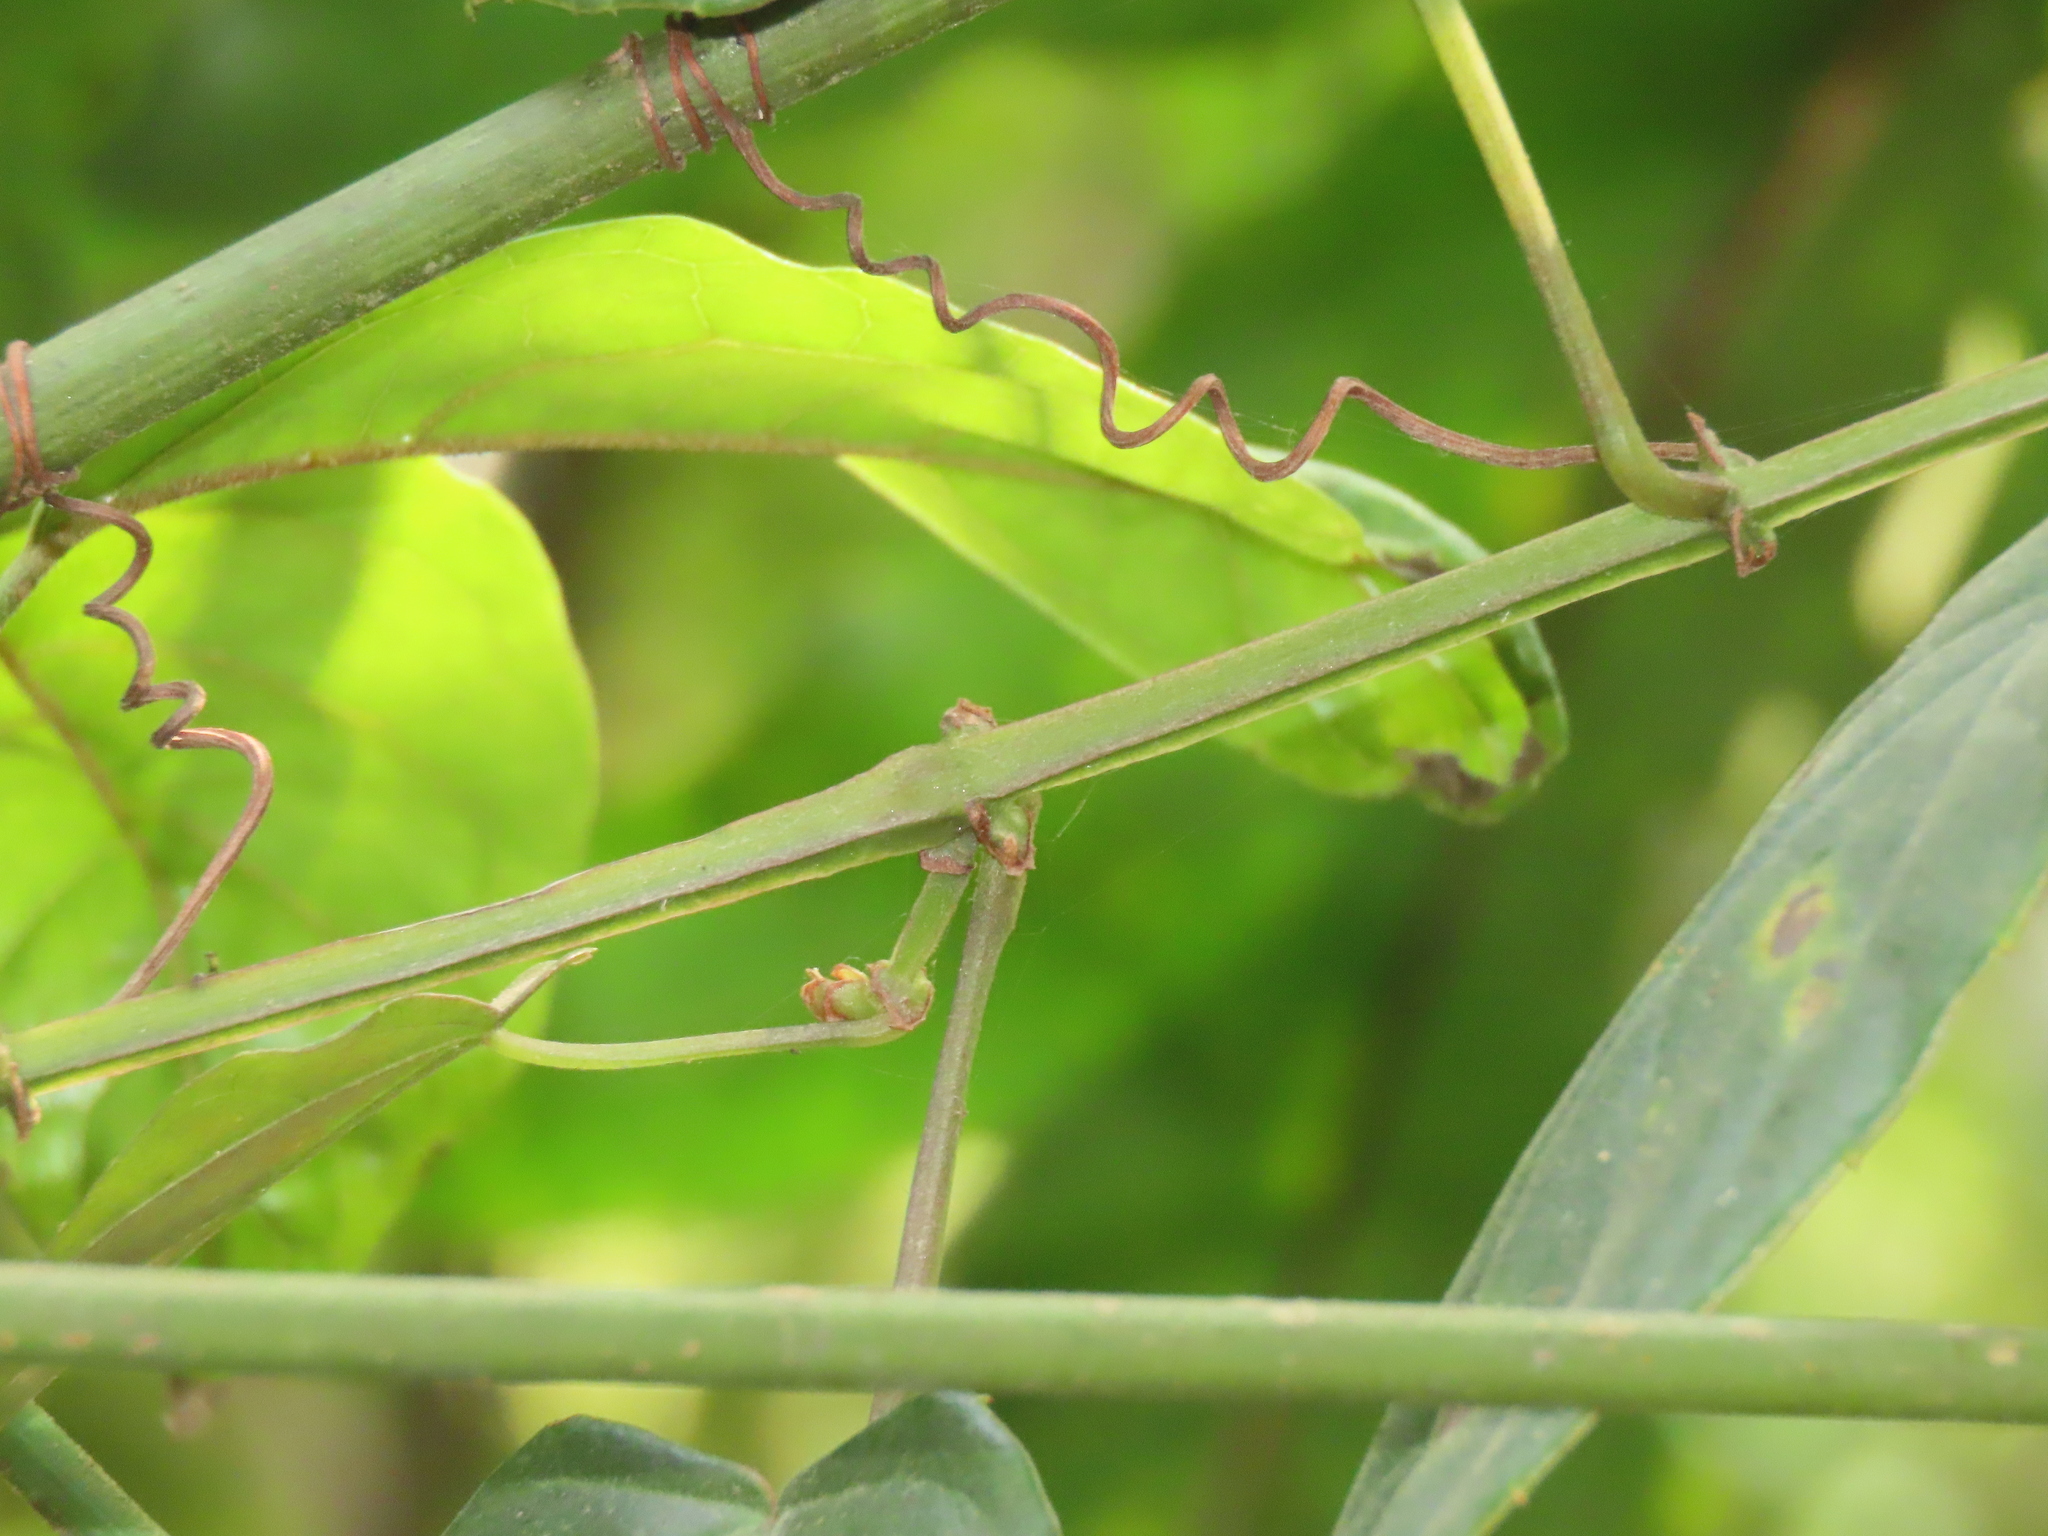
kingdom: Plantae
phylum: Tracheophyta
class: Magnoliopsida
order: Vitales
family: Vitaceae
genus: Cissus
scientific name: Cissus pteroclada
